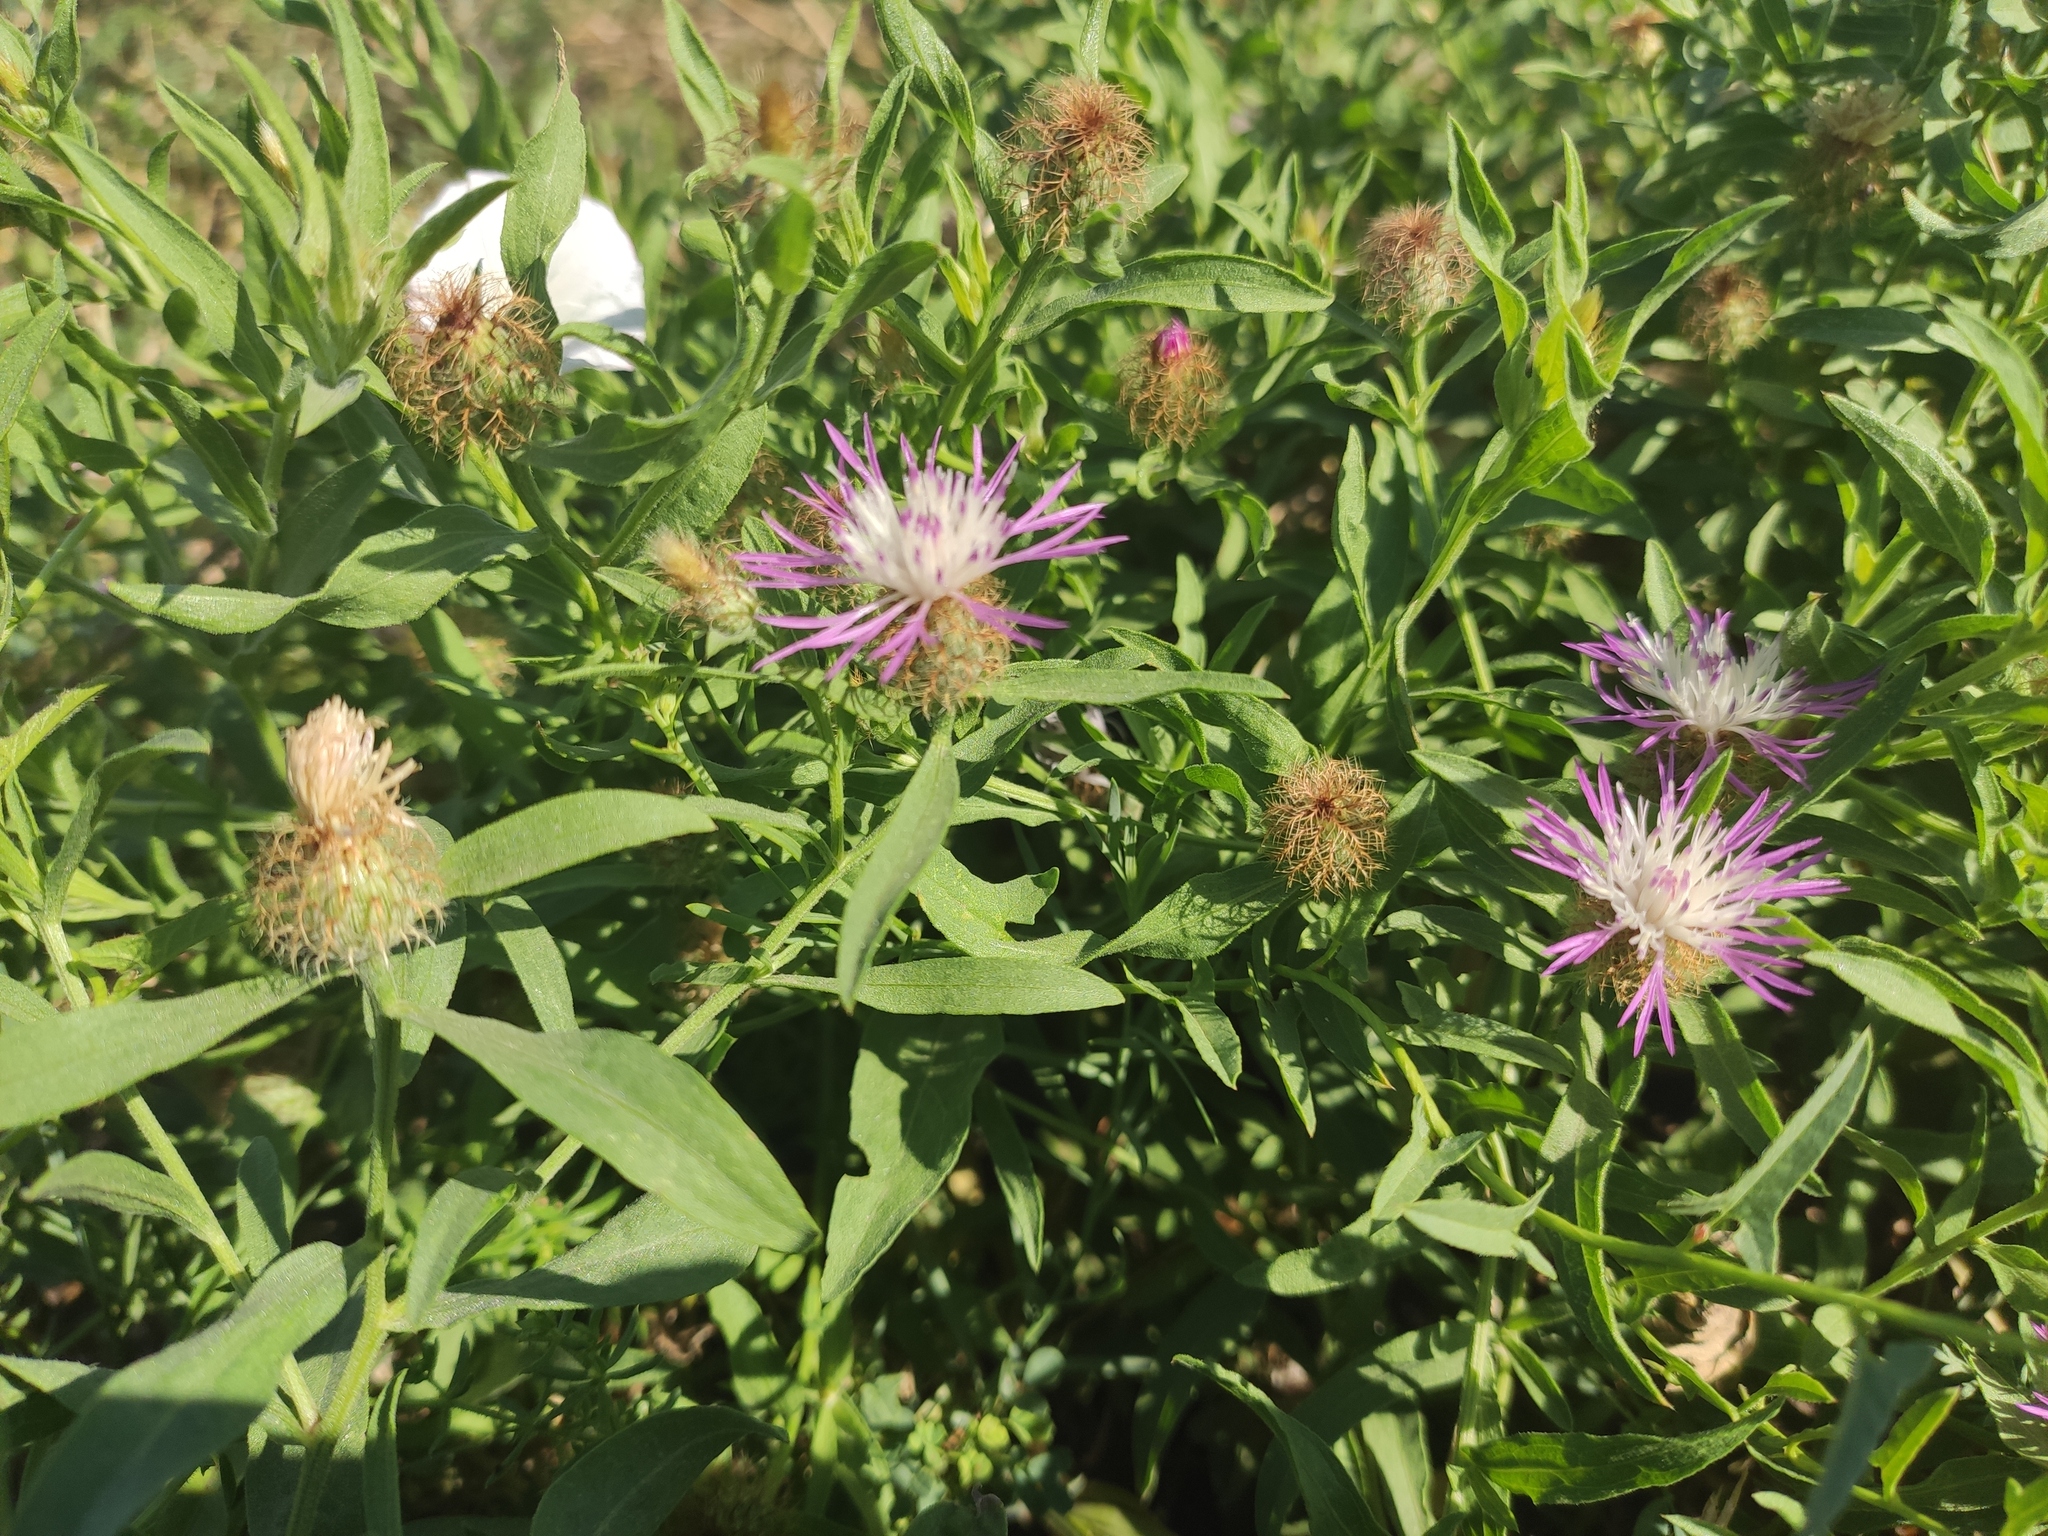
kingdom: Plantae
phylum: Tracheophyta
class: Magnoliopsida
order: Asterales
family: Asteraceae
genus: Centaurea
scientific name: Centaurea trichocephala
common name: Feather-head knapweed
